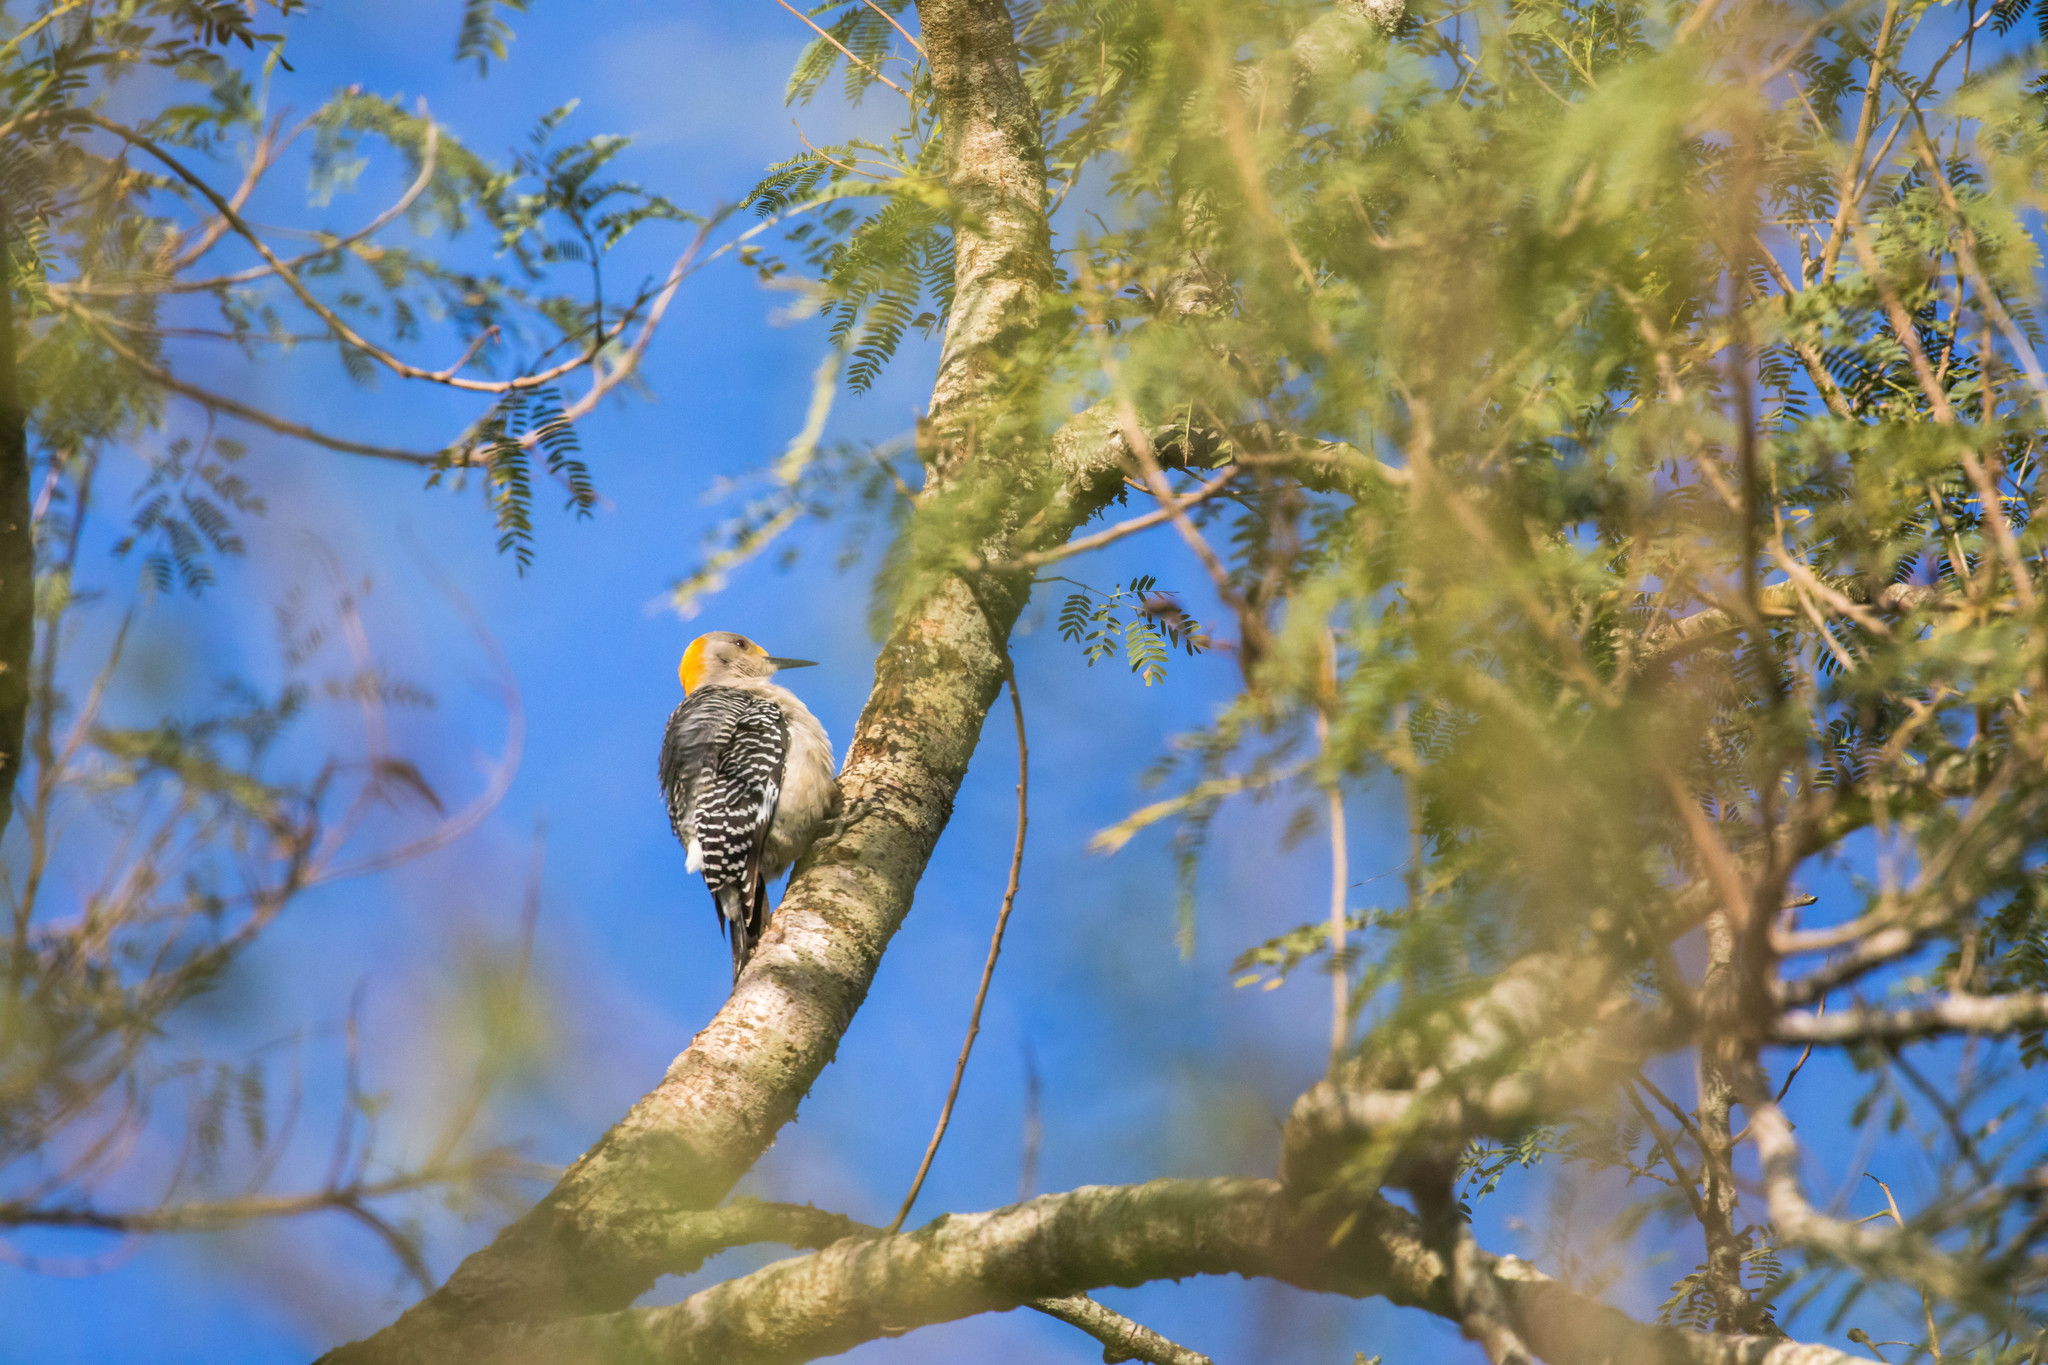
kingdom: Animalia
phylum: Chordata
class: Aves
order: Piciformes
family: Picidae
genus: Melanerpes
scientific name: Melanerpes aurifrons
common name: Golden-fronted woodpecker
